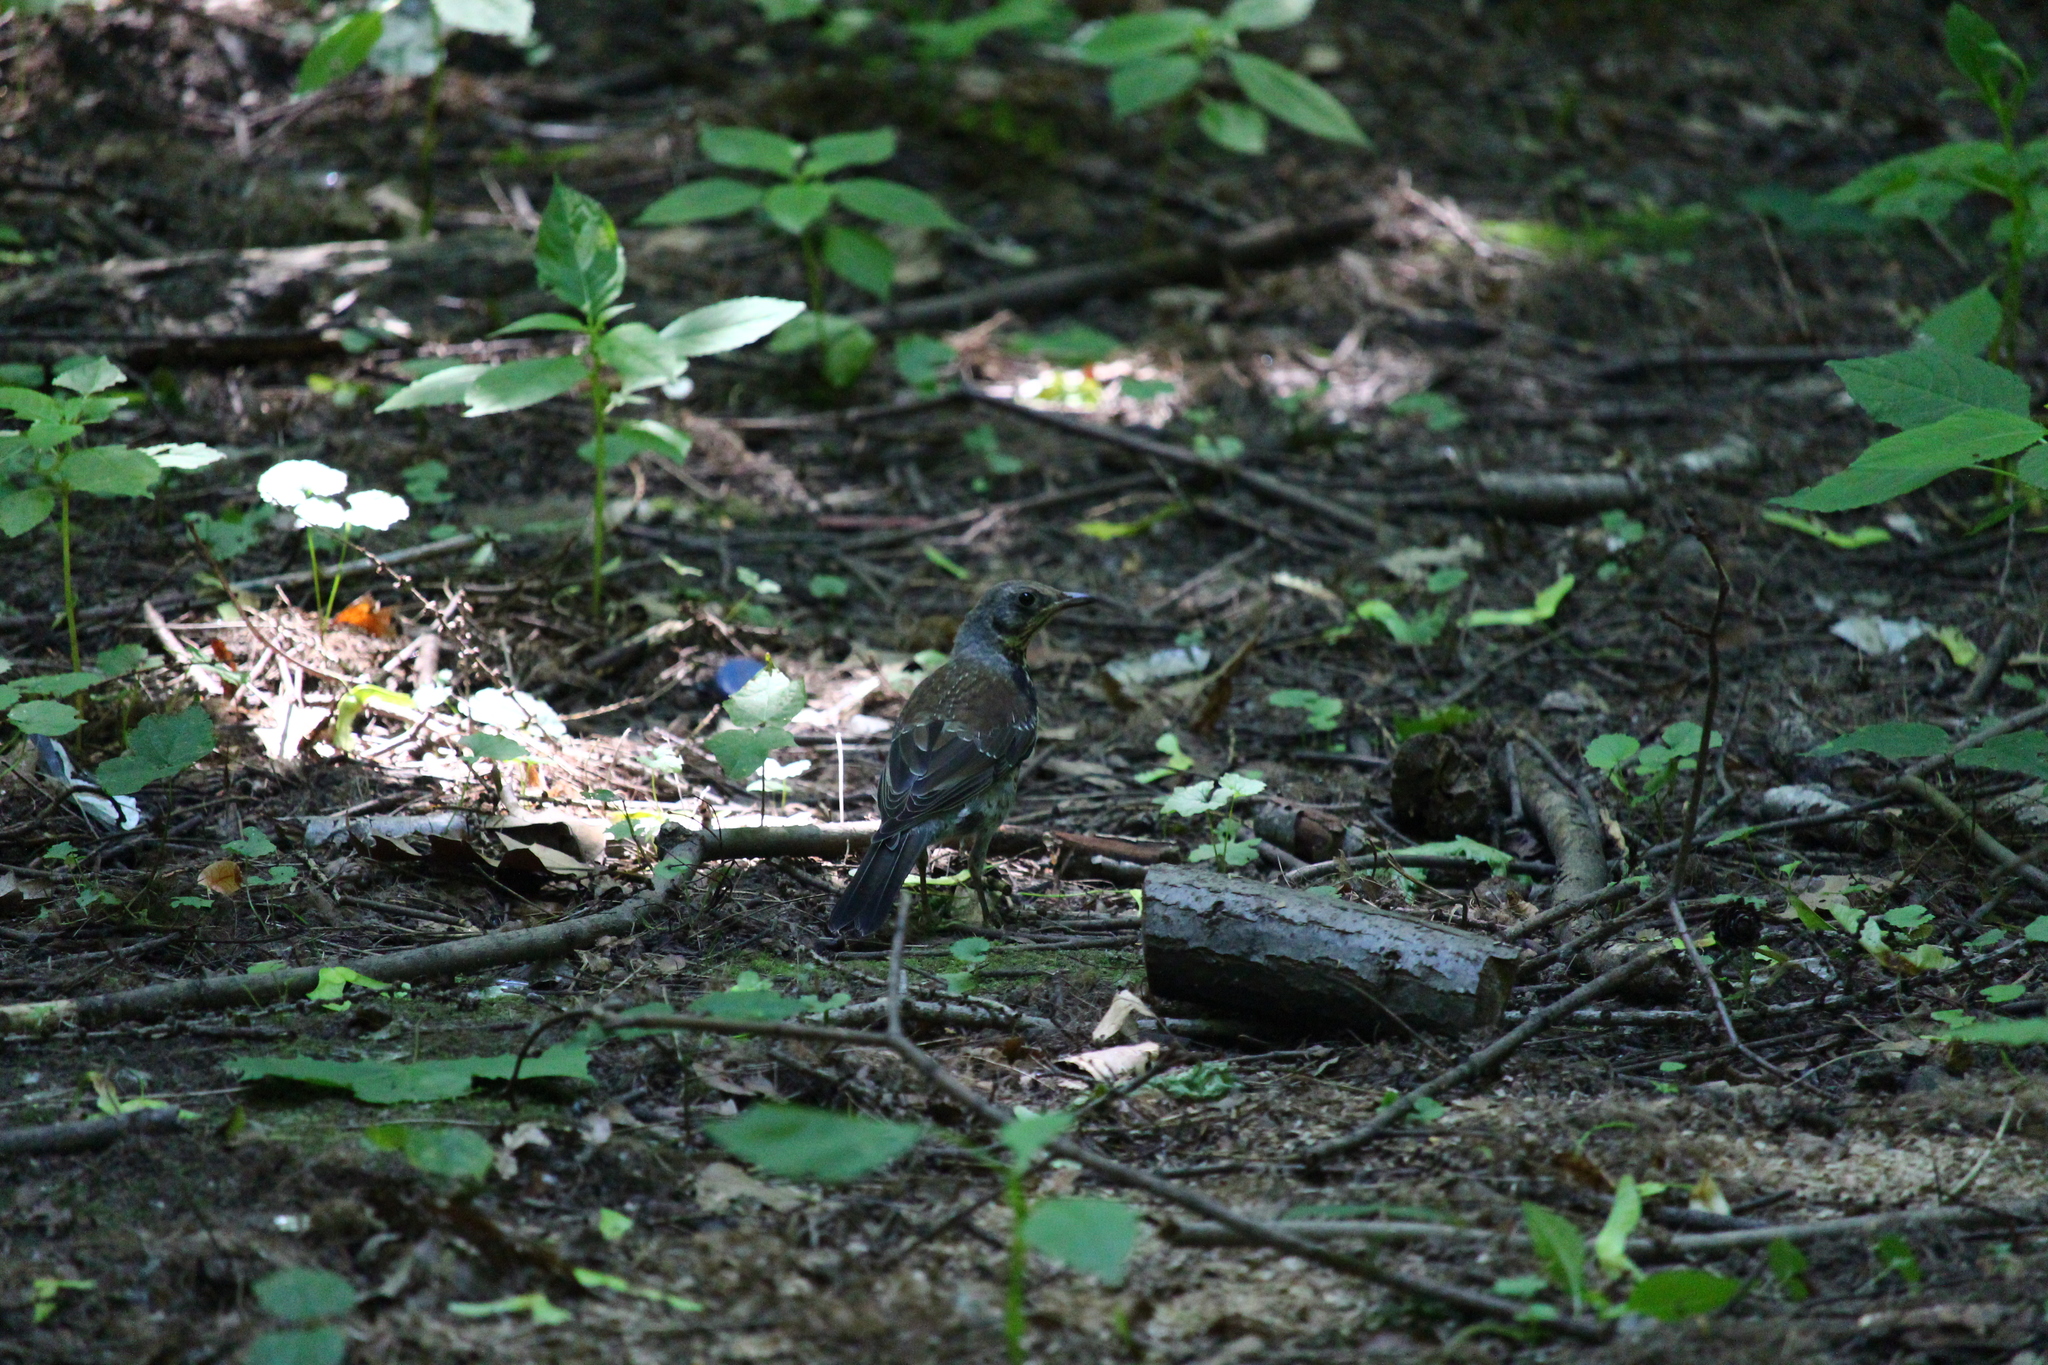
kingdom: Animalia
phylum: Chordata
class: Aves
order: Passeriformes
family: Turdidae
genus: Turdus
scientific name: Turdus pilaris
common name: Fieldfare
